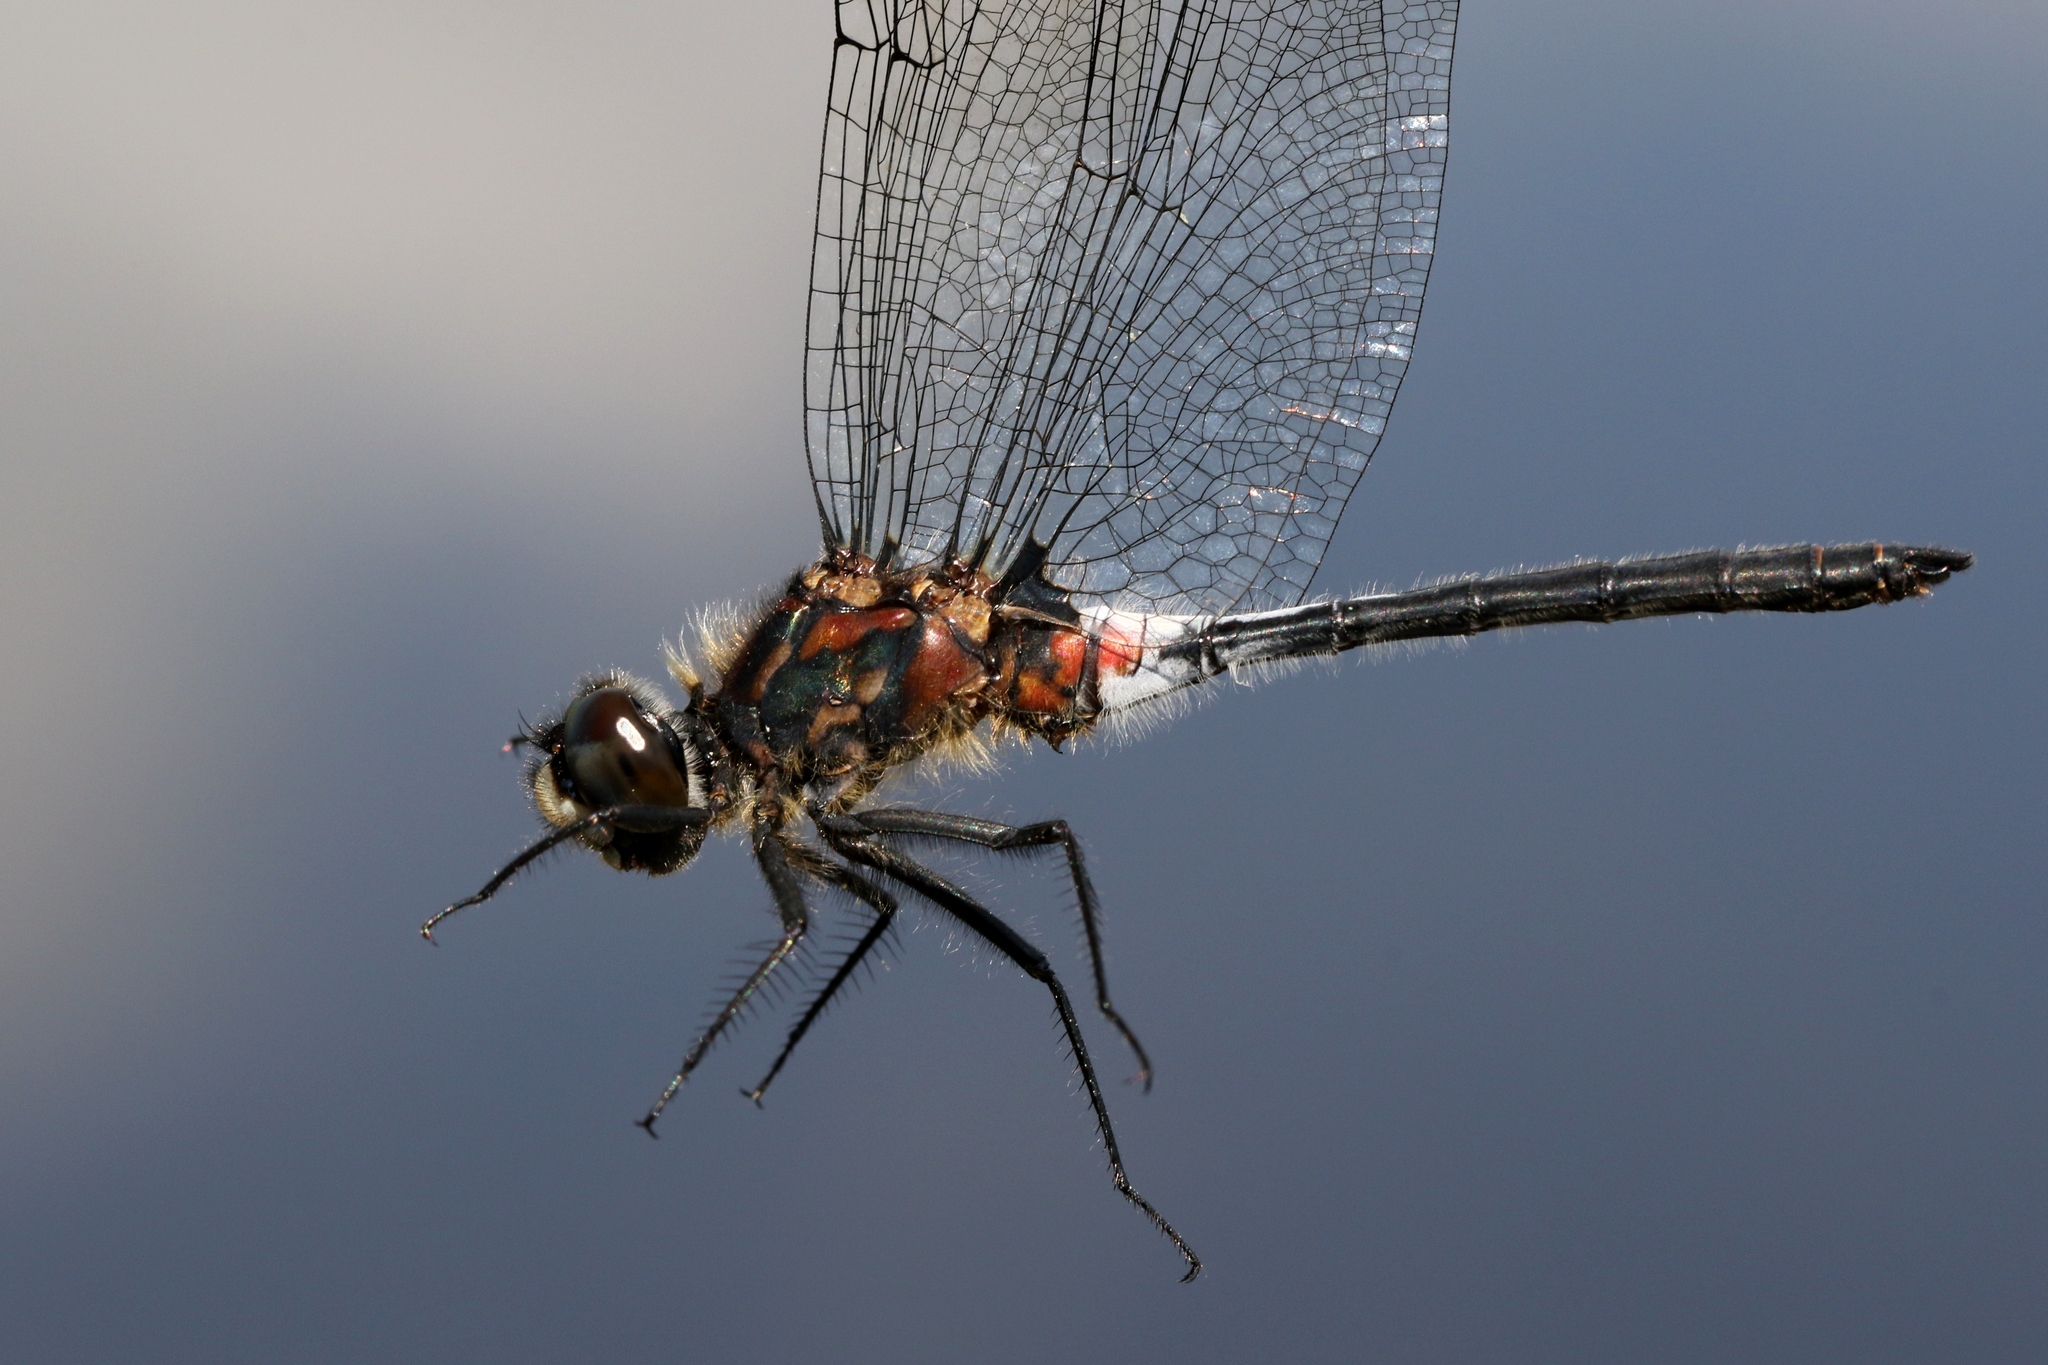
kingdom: Animalia
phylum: Arthropoda
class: Insecta
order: Odonata
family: Libellulidae
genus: Leucorrhinia
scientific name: Leucorrhinia proxima
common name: Belted whiteface
